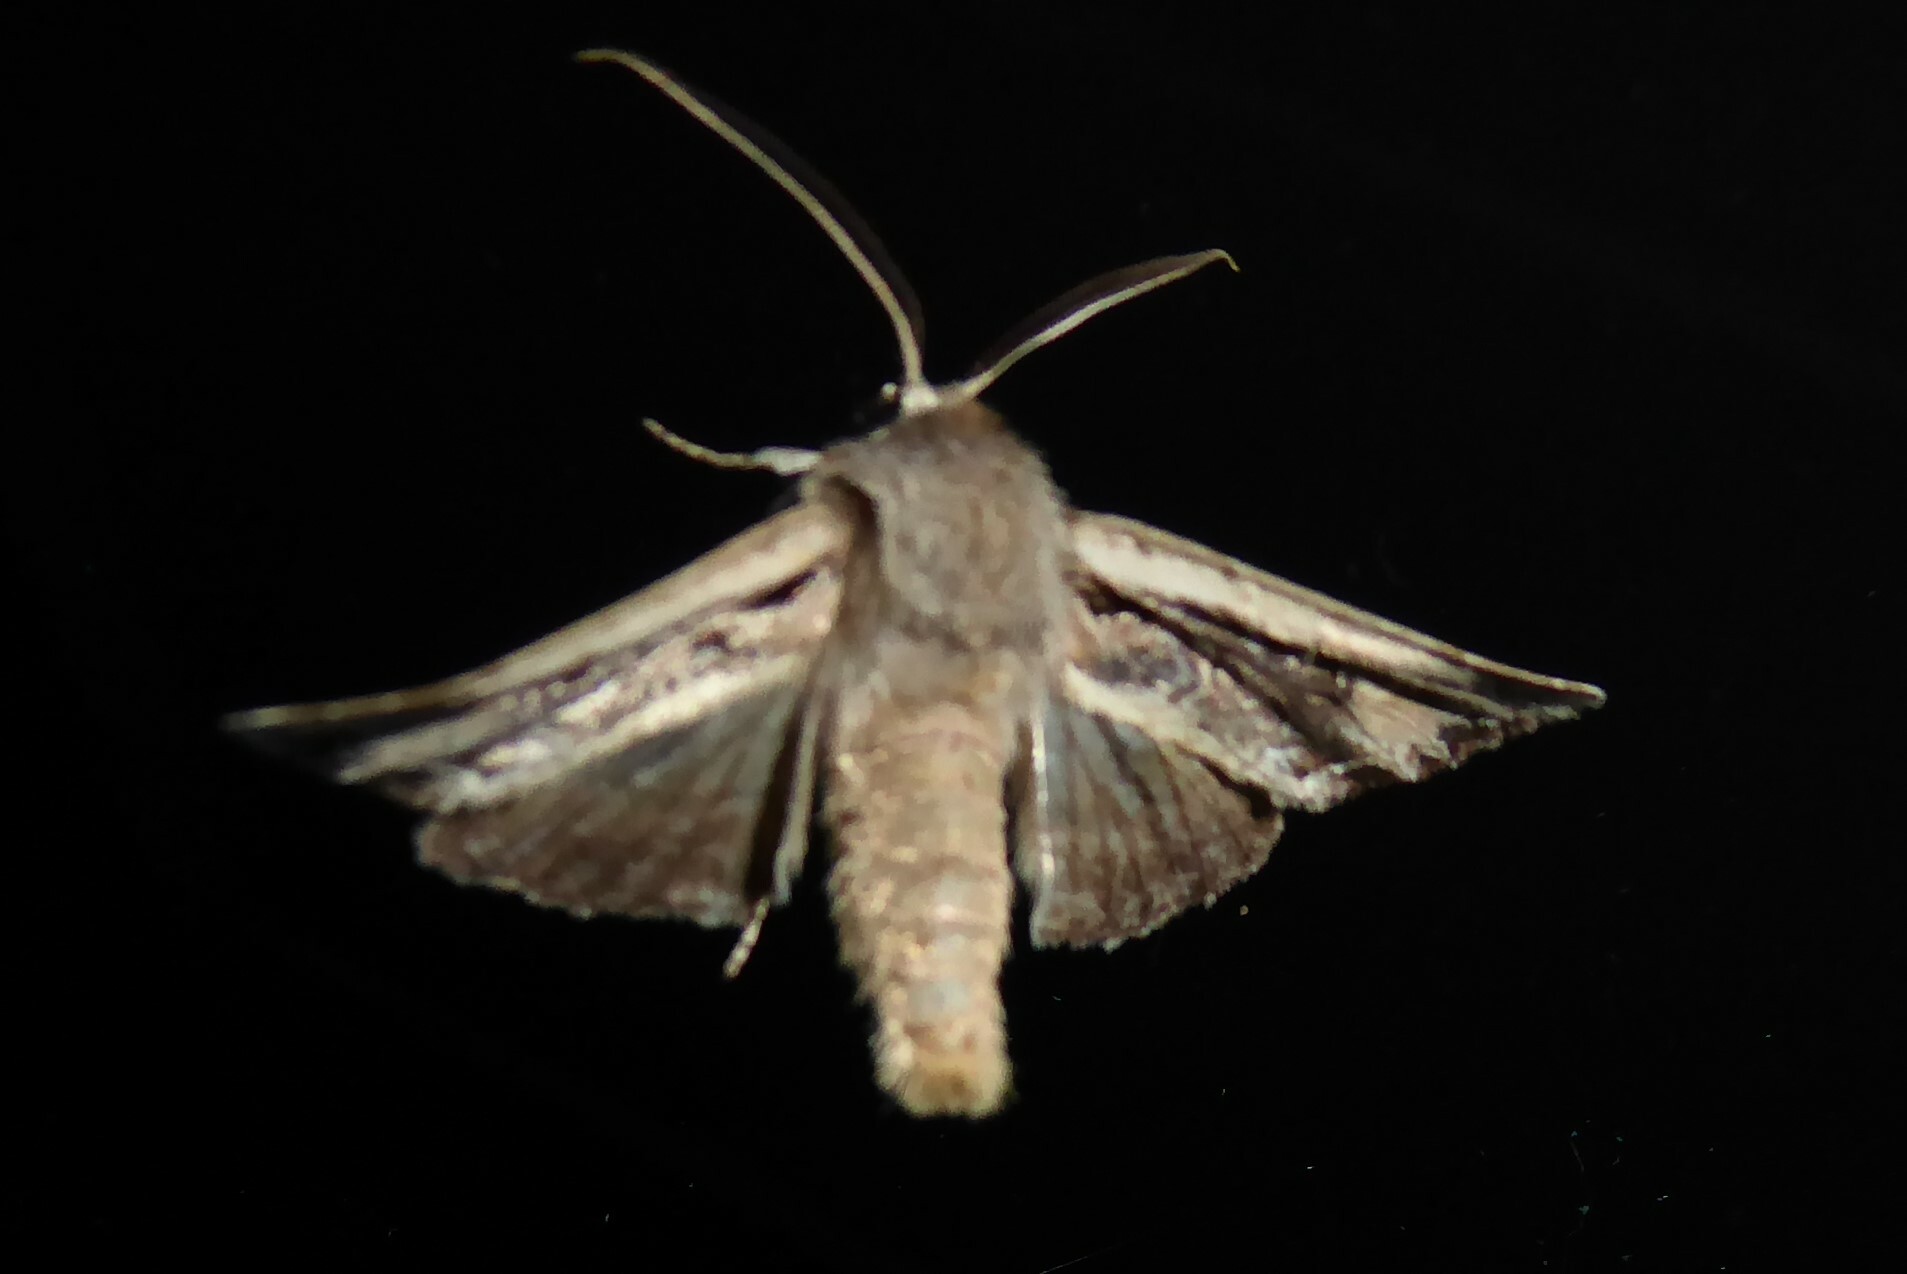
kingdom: Animalia
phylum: Arthropoda
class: Insecta
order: Lepidoptera
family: Noctuidae
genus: Ichneutica
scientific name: Ichneutica
